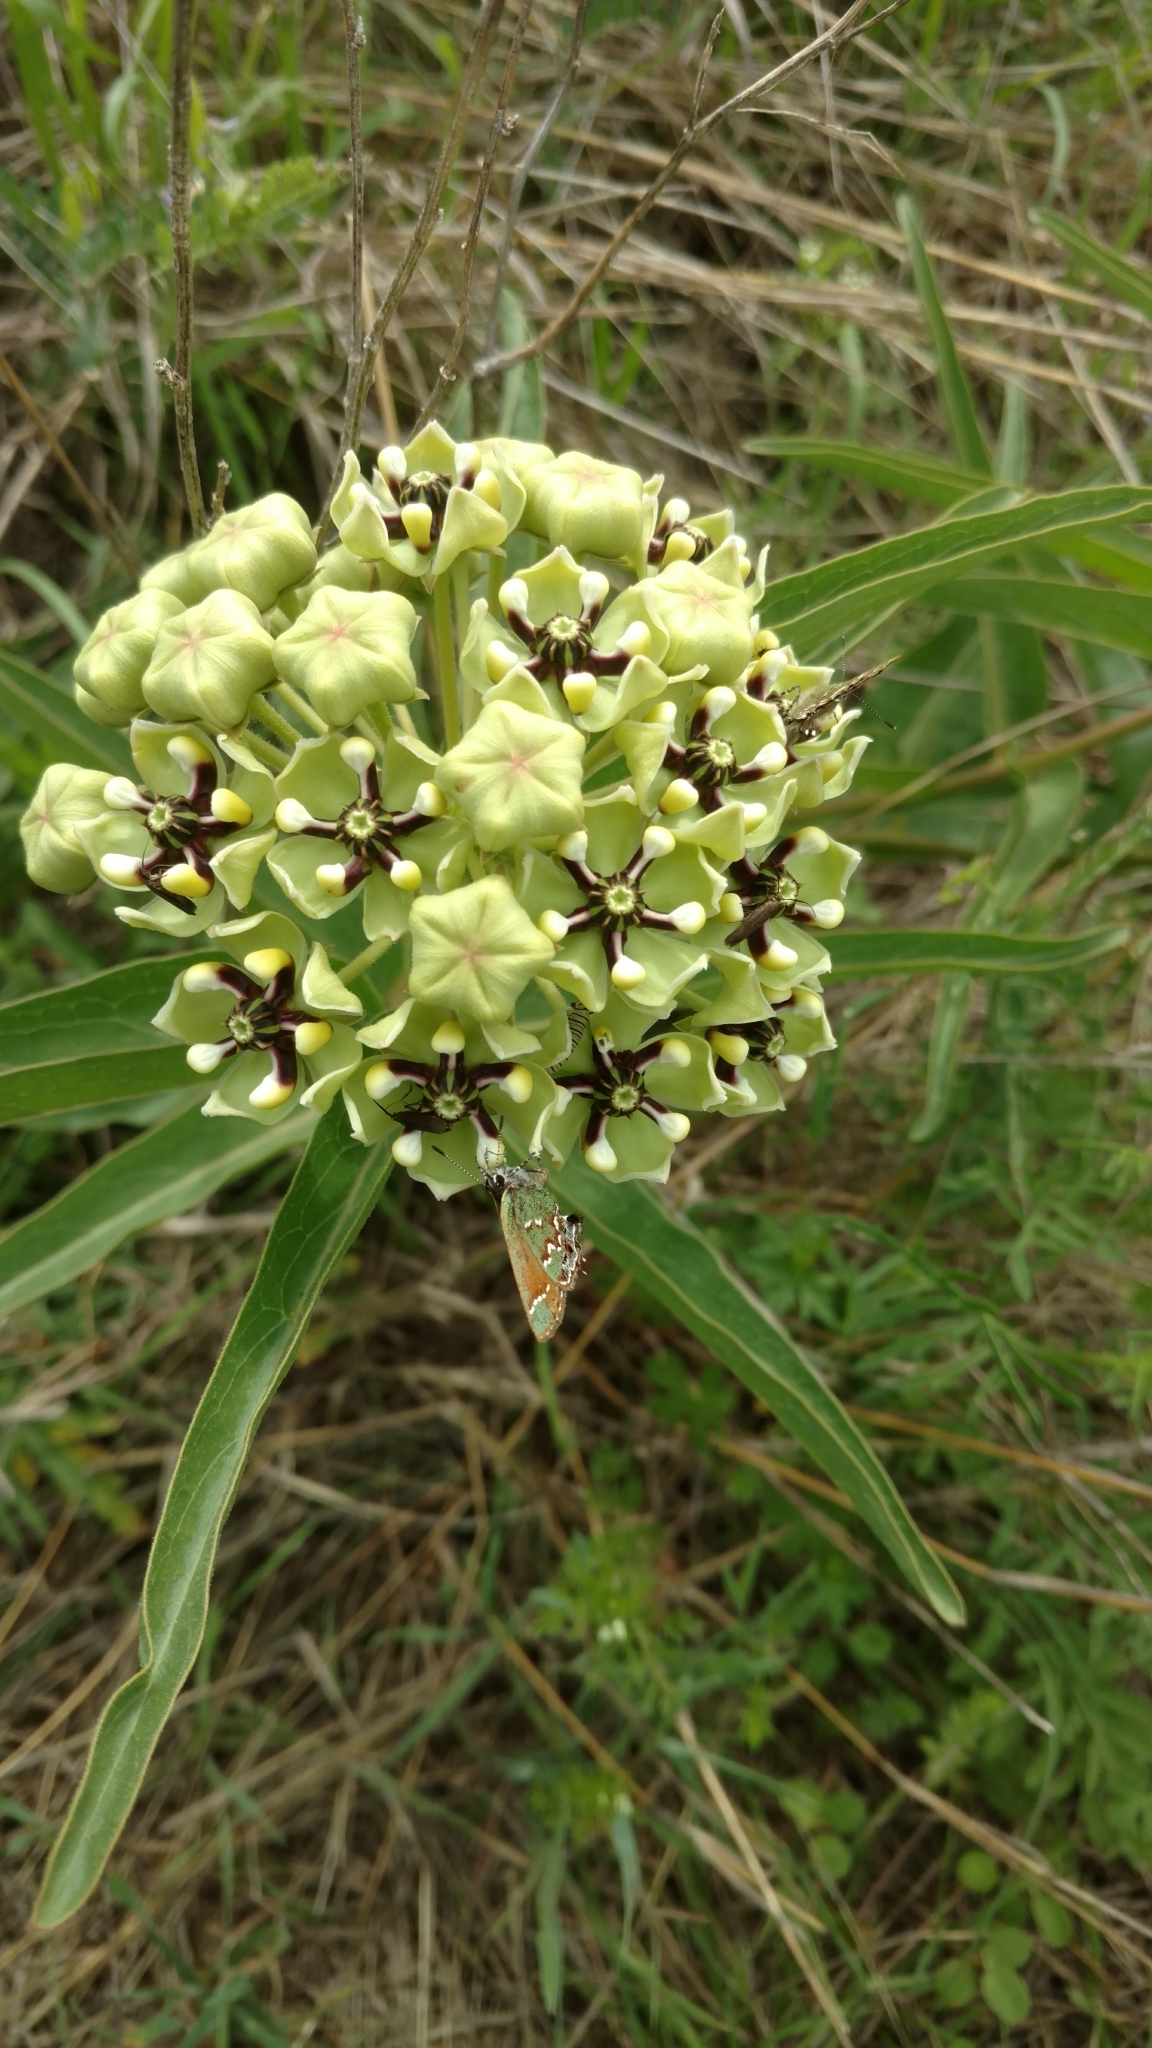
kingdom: Plantae
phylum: Tracheophyta
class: Magnoliopsida
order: Gentianales
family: Apocynaceae
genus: Asclepias
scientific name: Asclepias asperula
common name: Antelope horns
